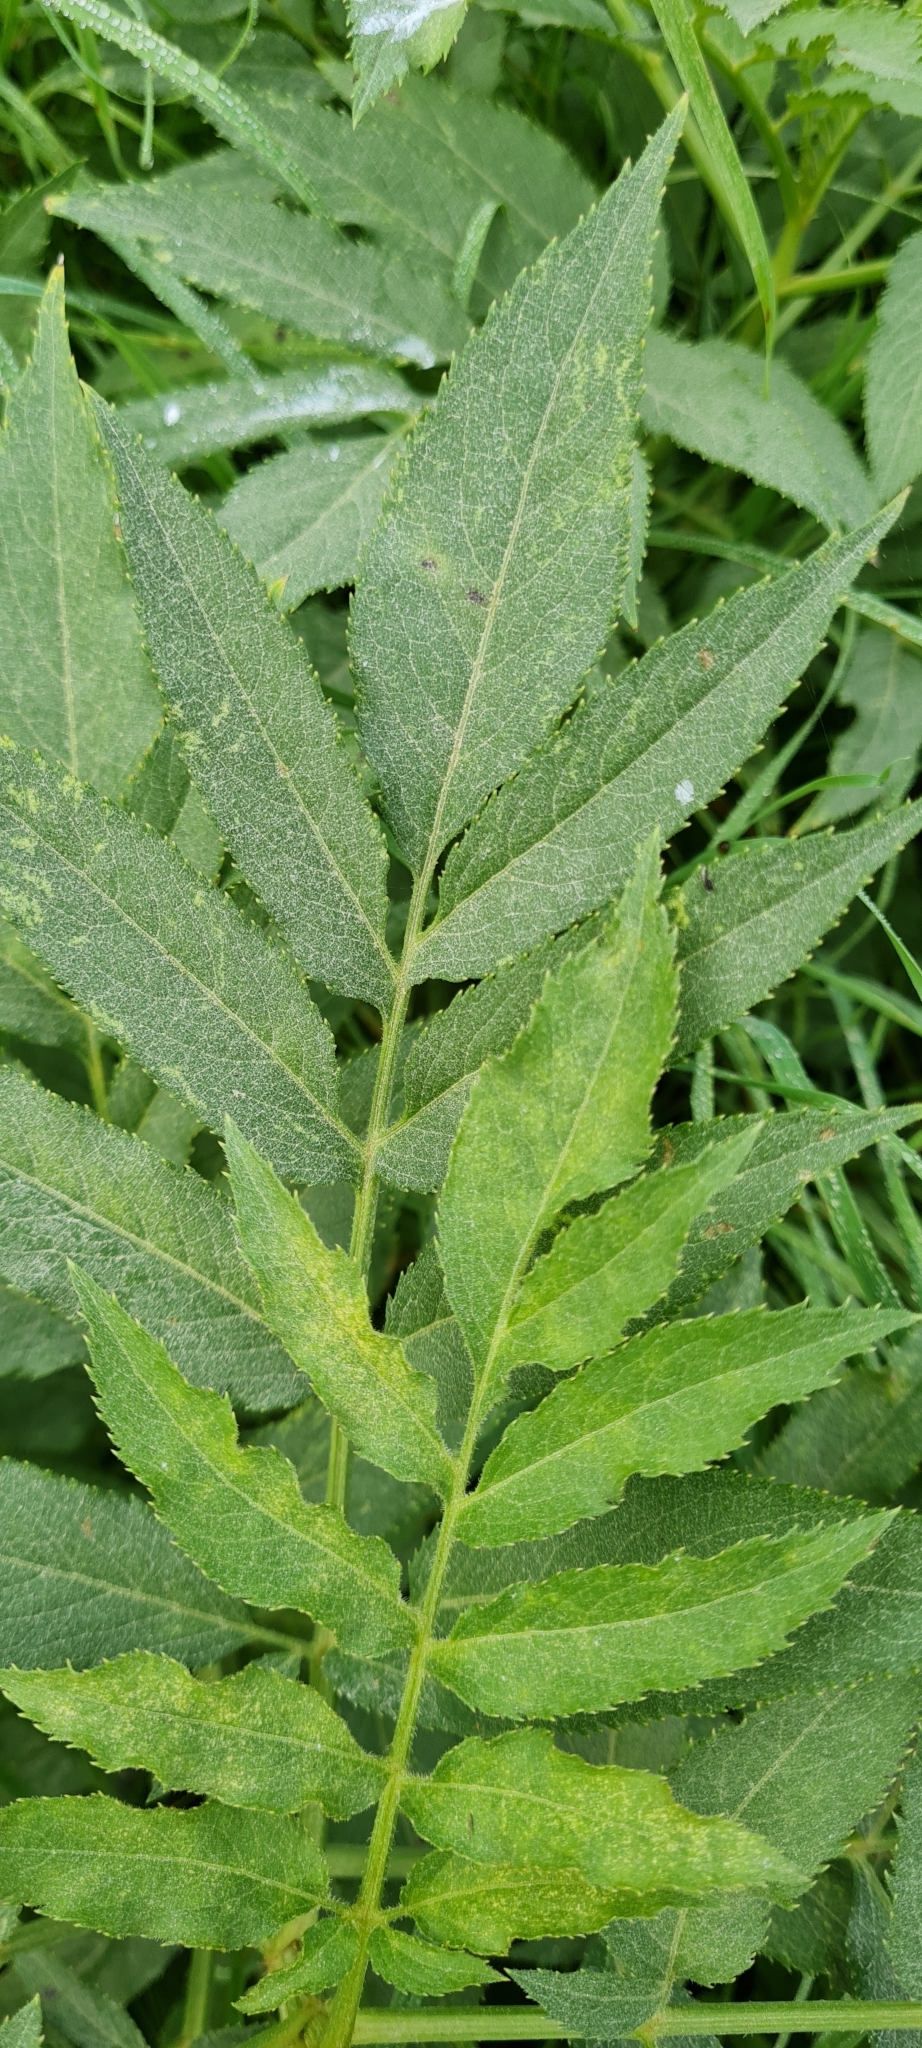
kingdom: Plantae
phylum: Tracheophyta
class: Magnoliopsida
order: Dipsacales
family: Viburnaceae
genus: Sambucus
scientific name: Sambucus ebulus
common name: Dwarf elder
